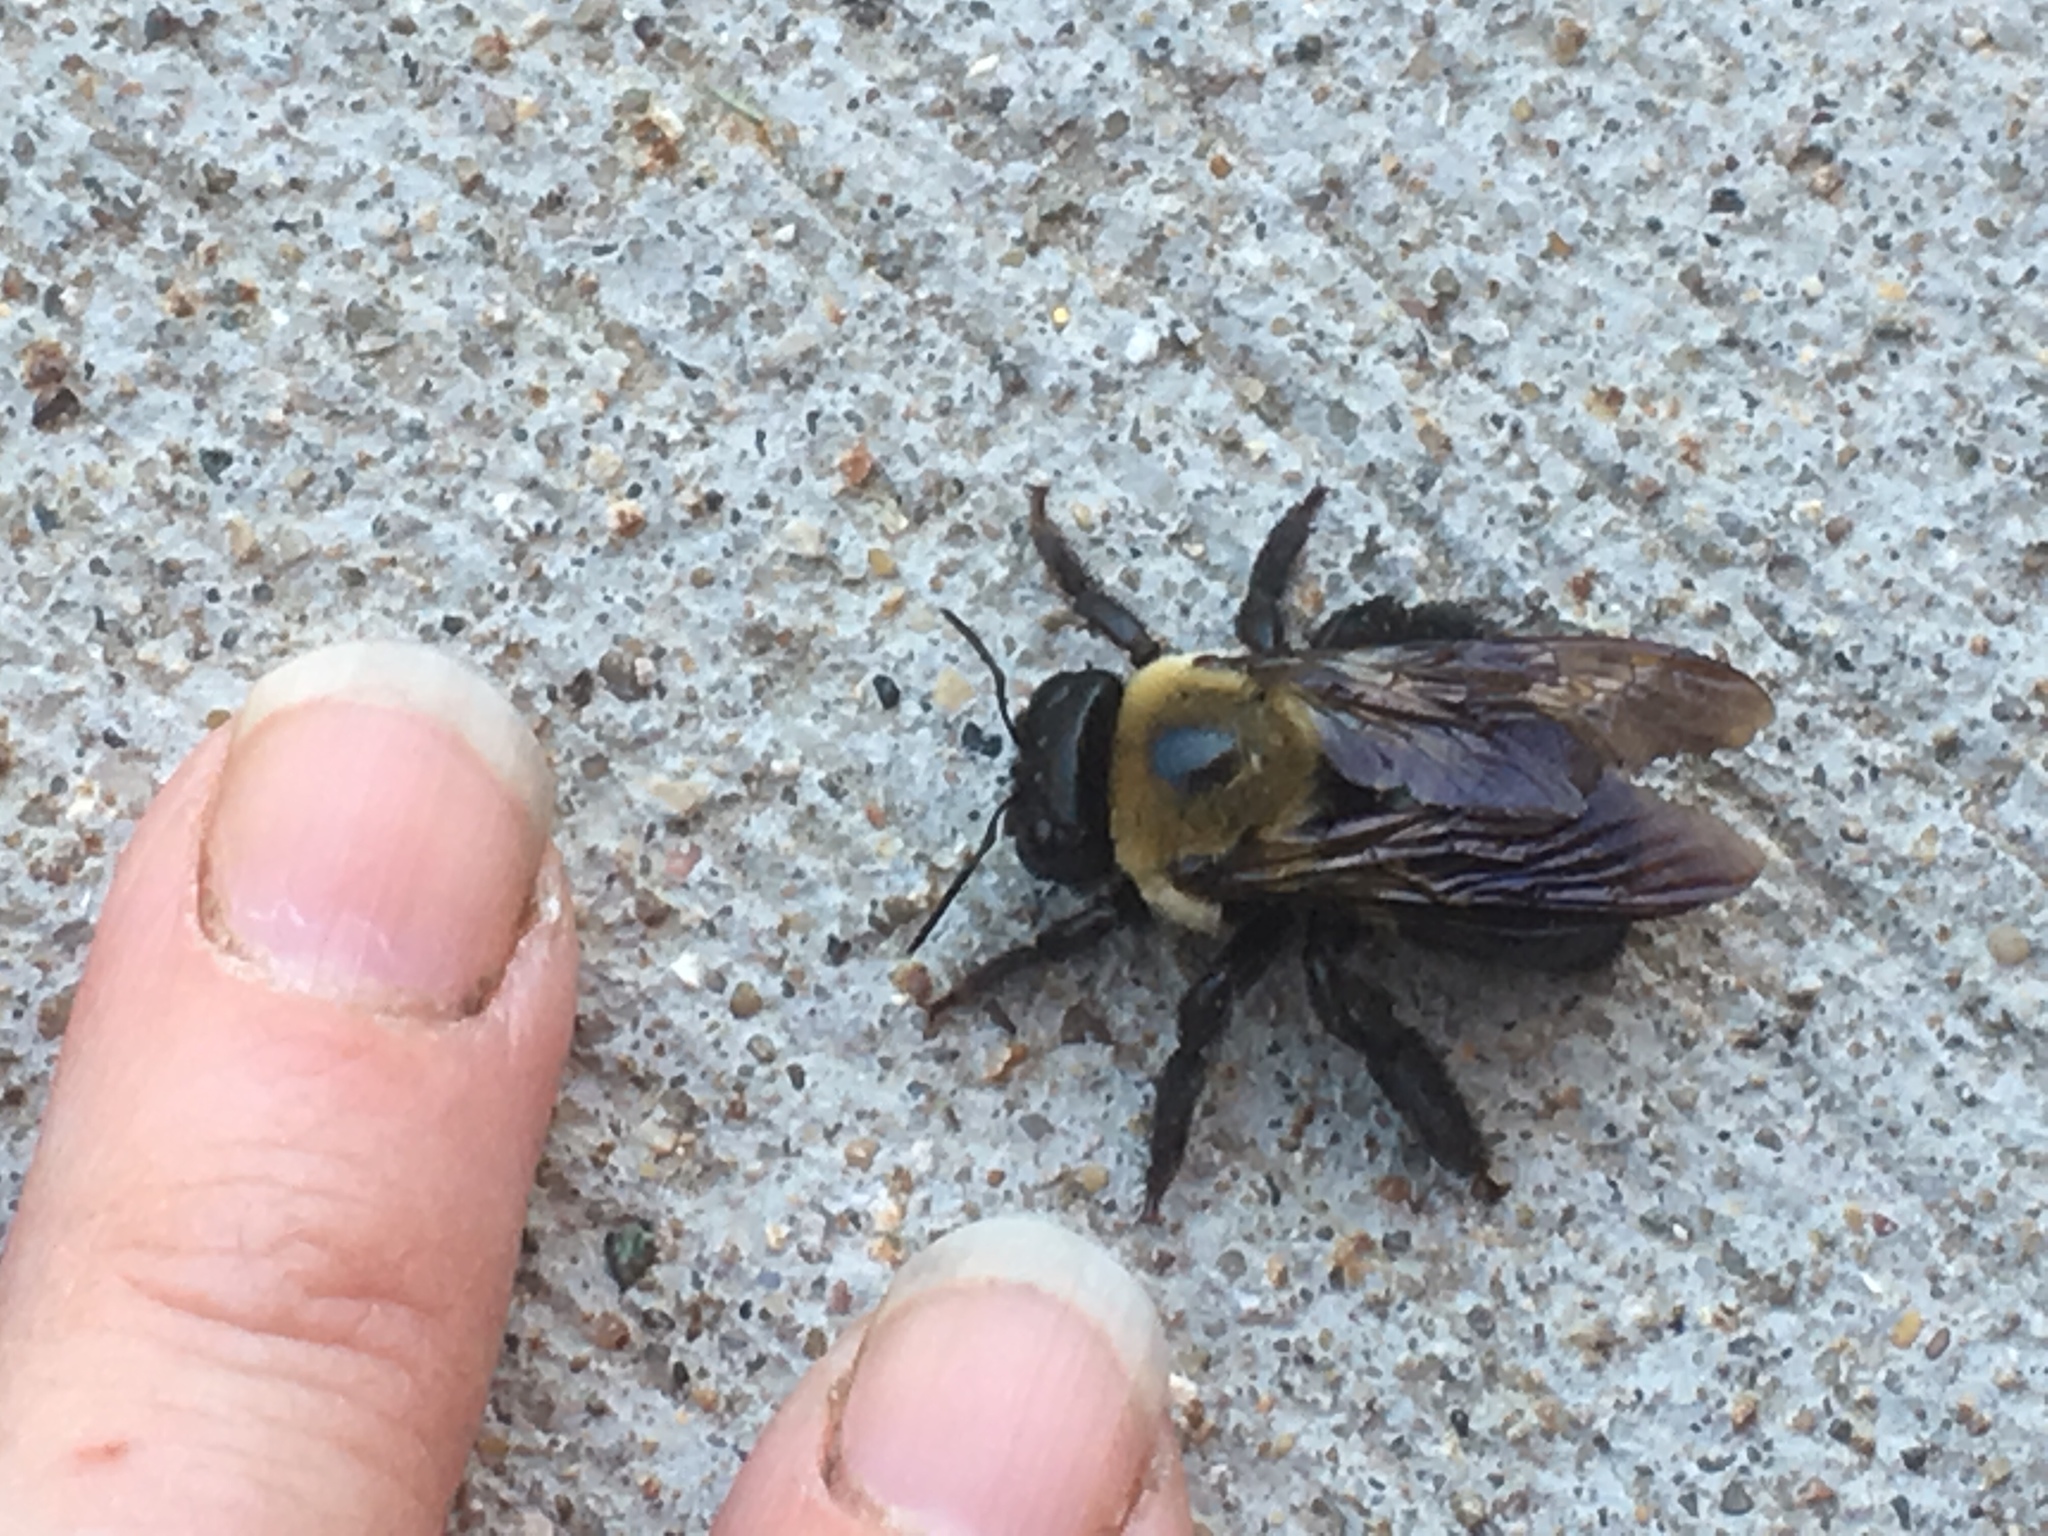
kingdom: Animalia
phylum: Arthropoda
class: Insecta
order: Hymenoptera
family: Apidae
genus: Xylocopa
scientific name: Xylocopa virginica
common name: Carpenter bee
